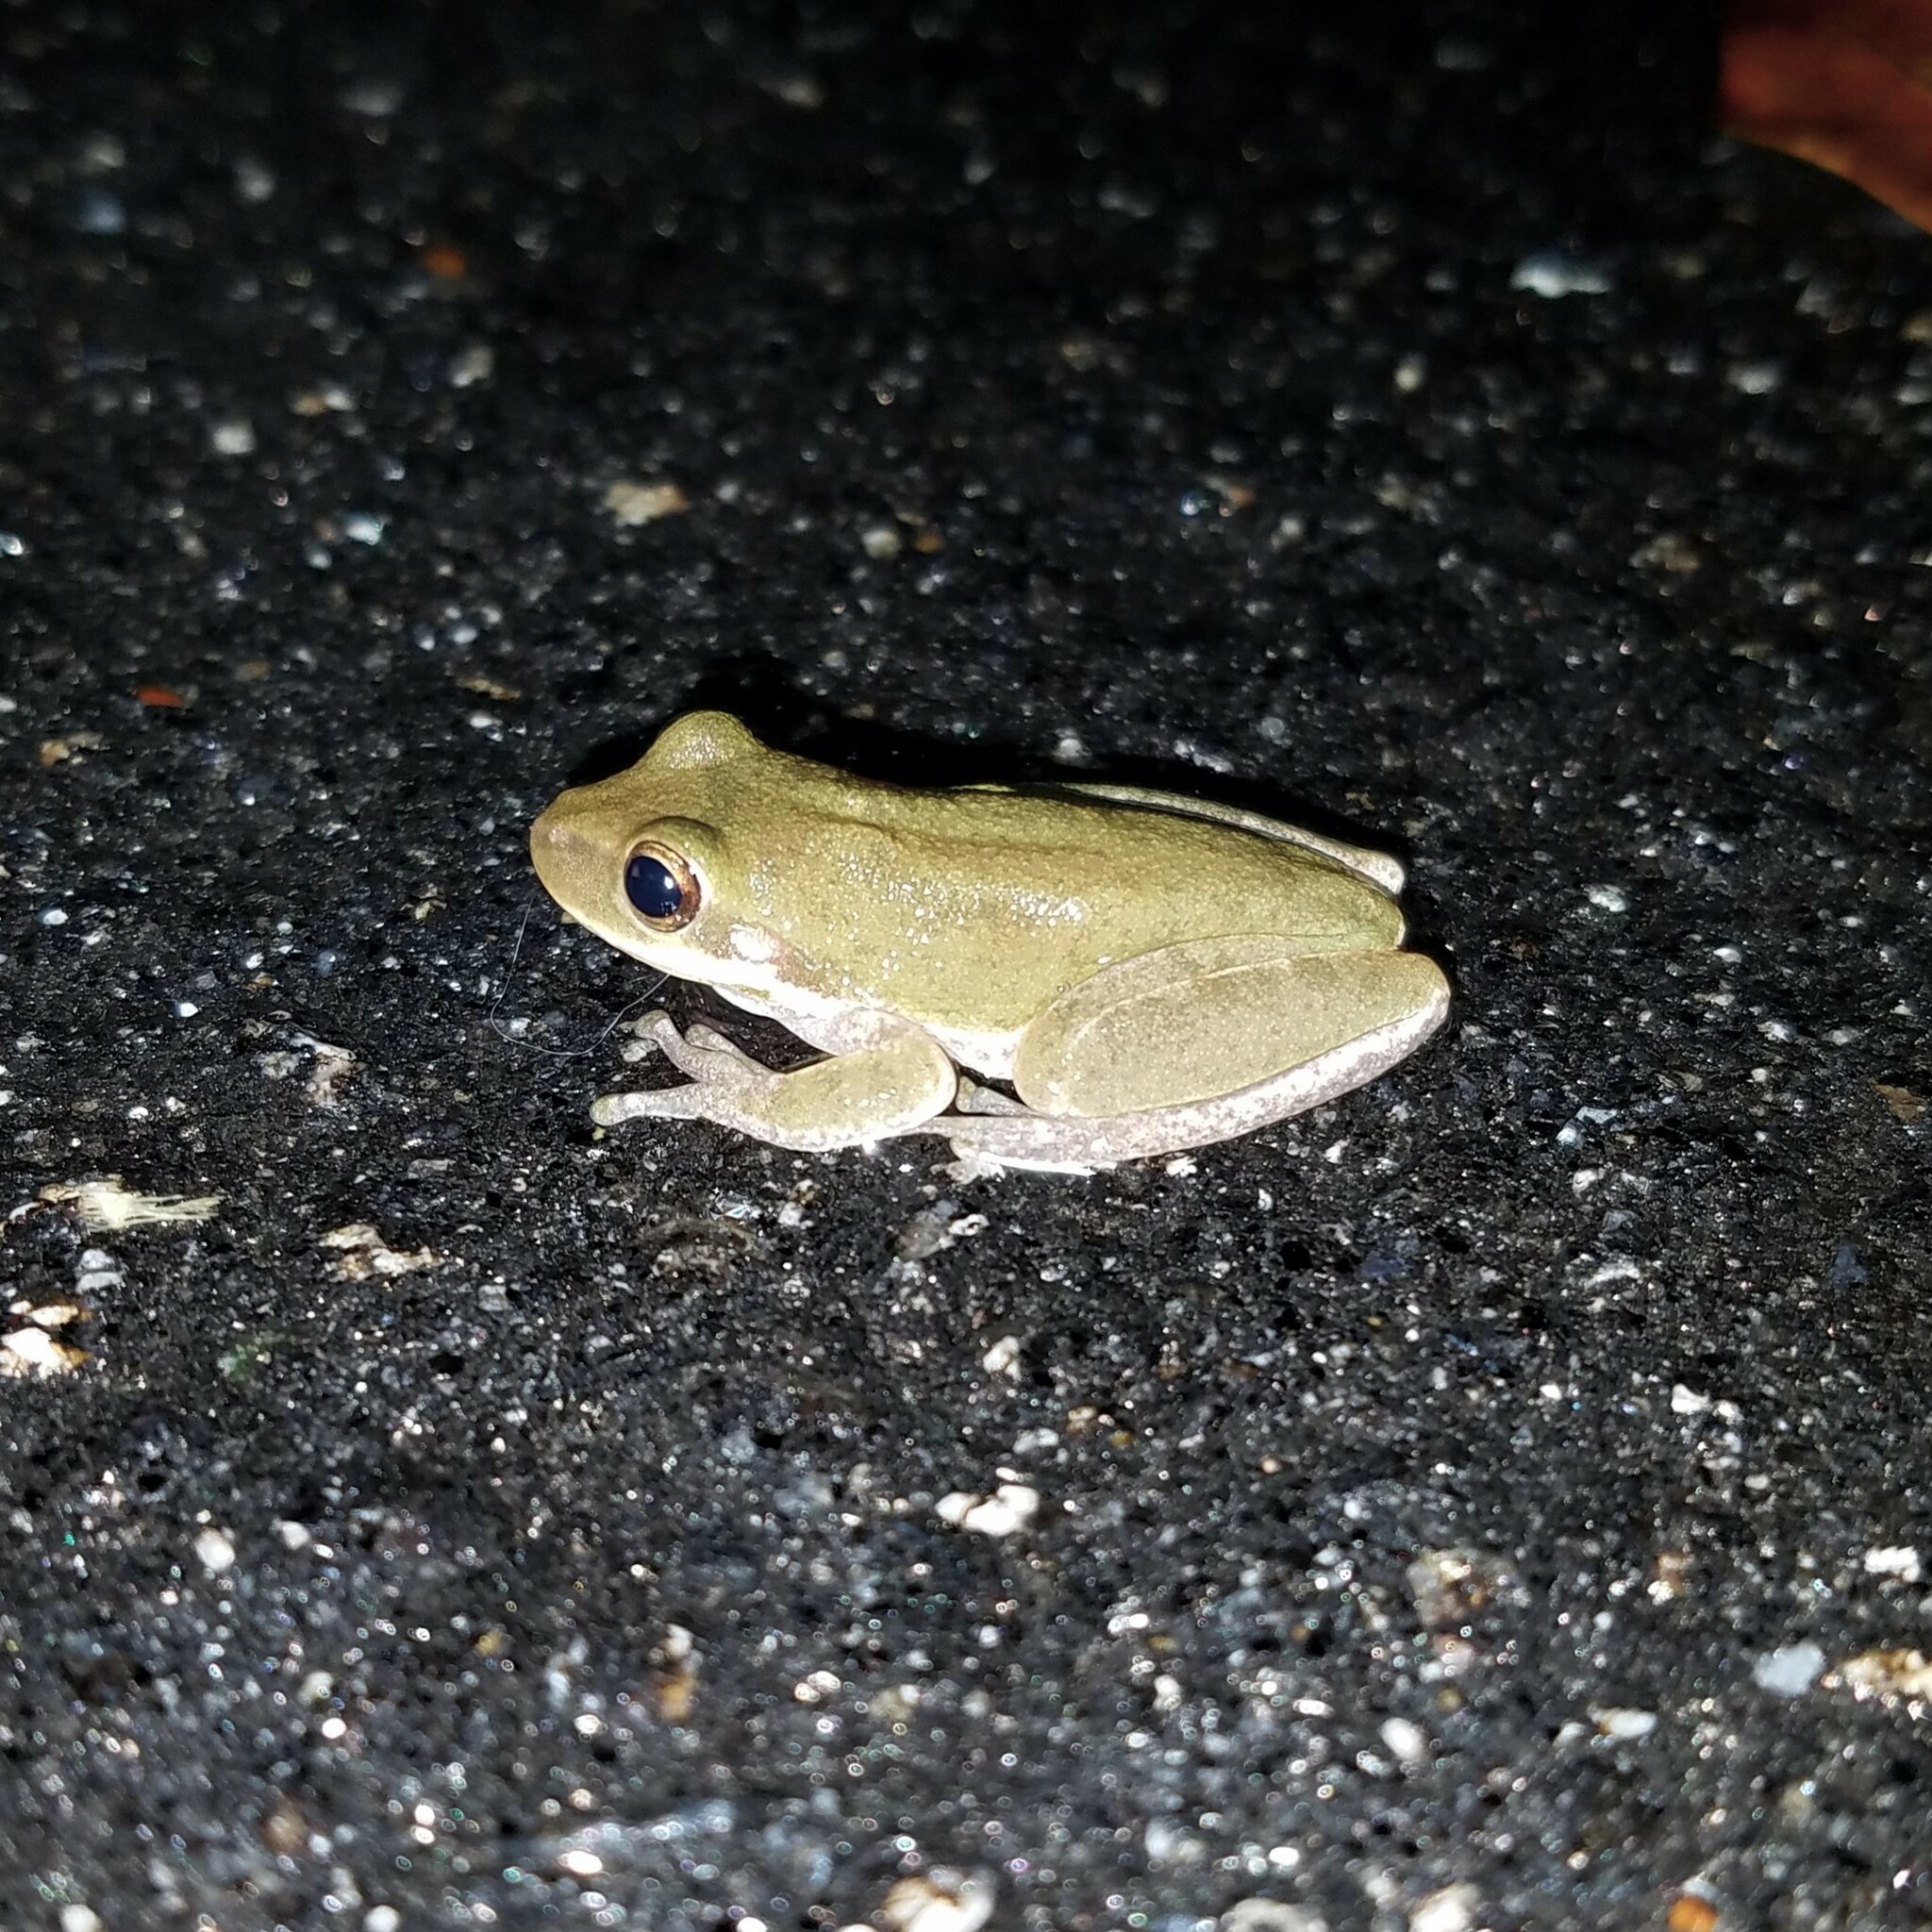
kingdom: Animalia
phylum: Chordata
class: Amphibia
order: Anura
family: Hylidae
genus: Dryophytes
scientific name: Dryophytes squirellus
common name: Squirrel treefrog
